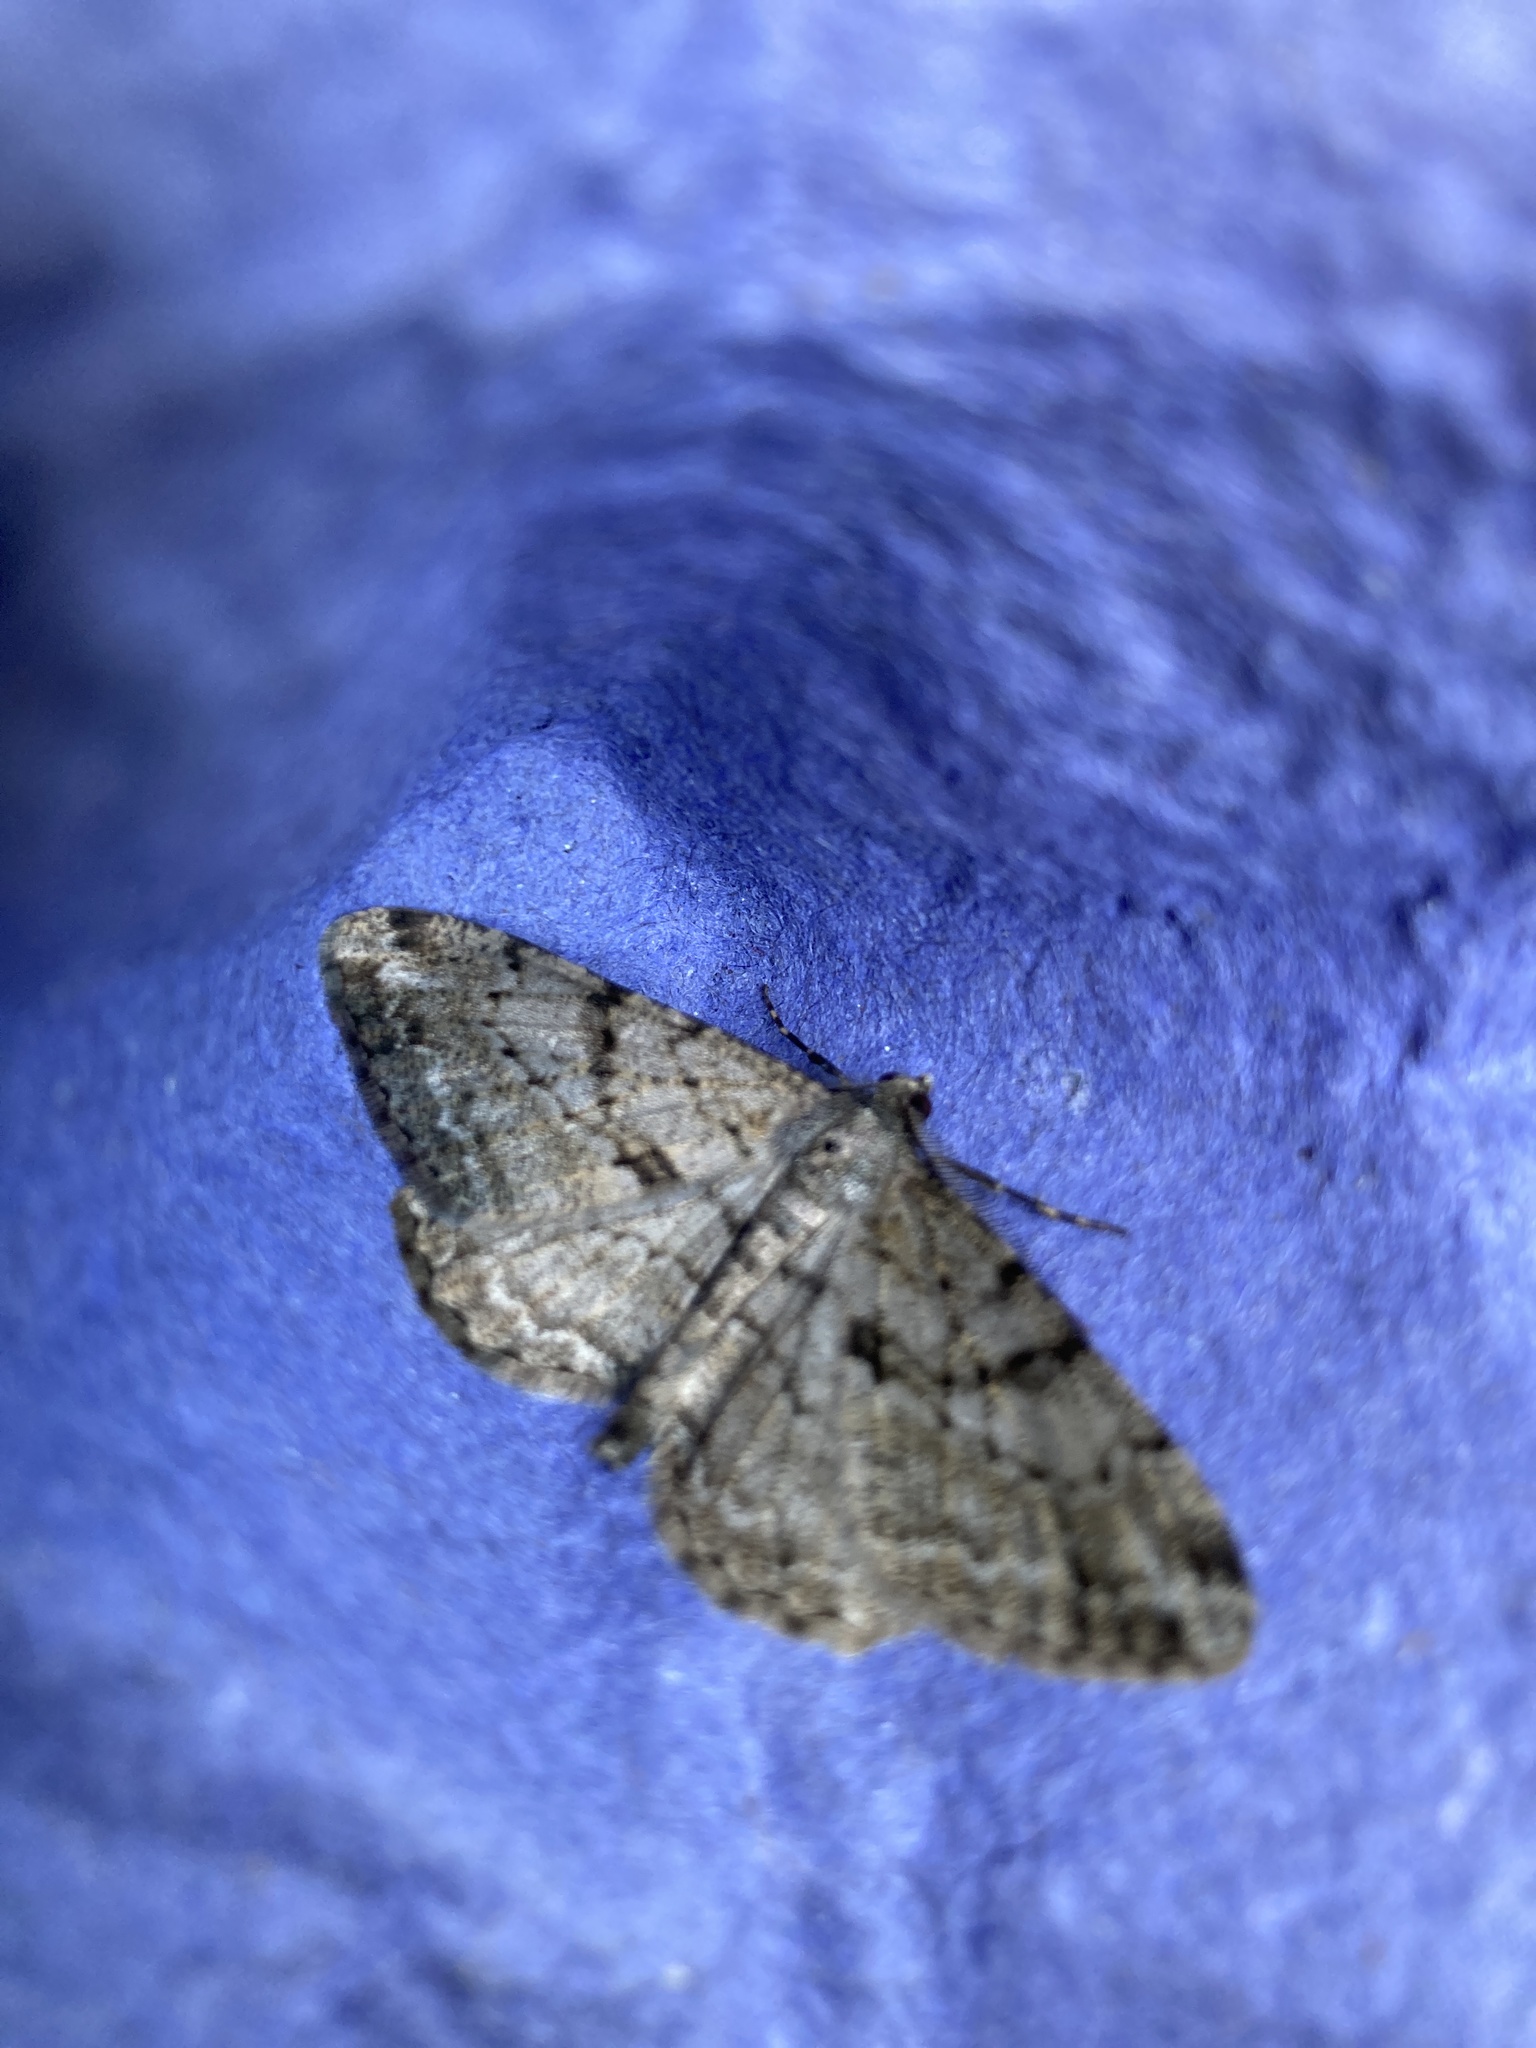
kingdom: Animalia
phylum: Arthropoda
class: Insecta
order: Lepidoptera
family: Geometridae
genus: Peribatodes
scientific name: Peribatodes rhomboidaria
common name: Willow beauty
